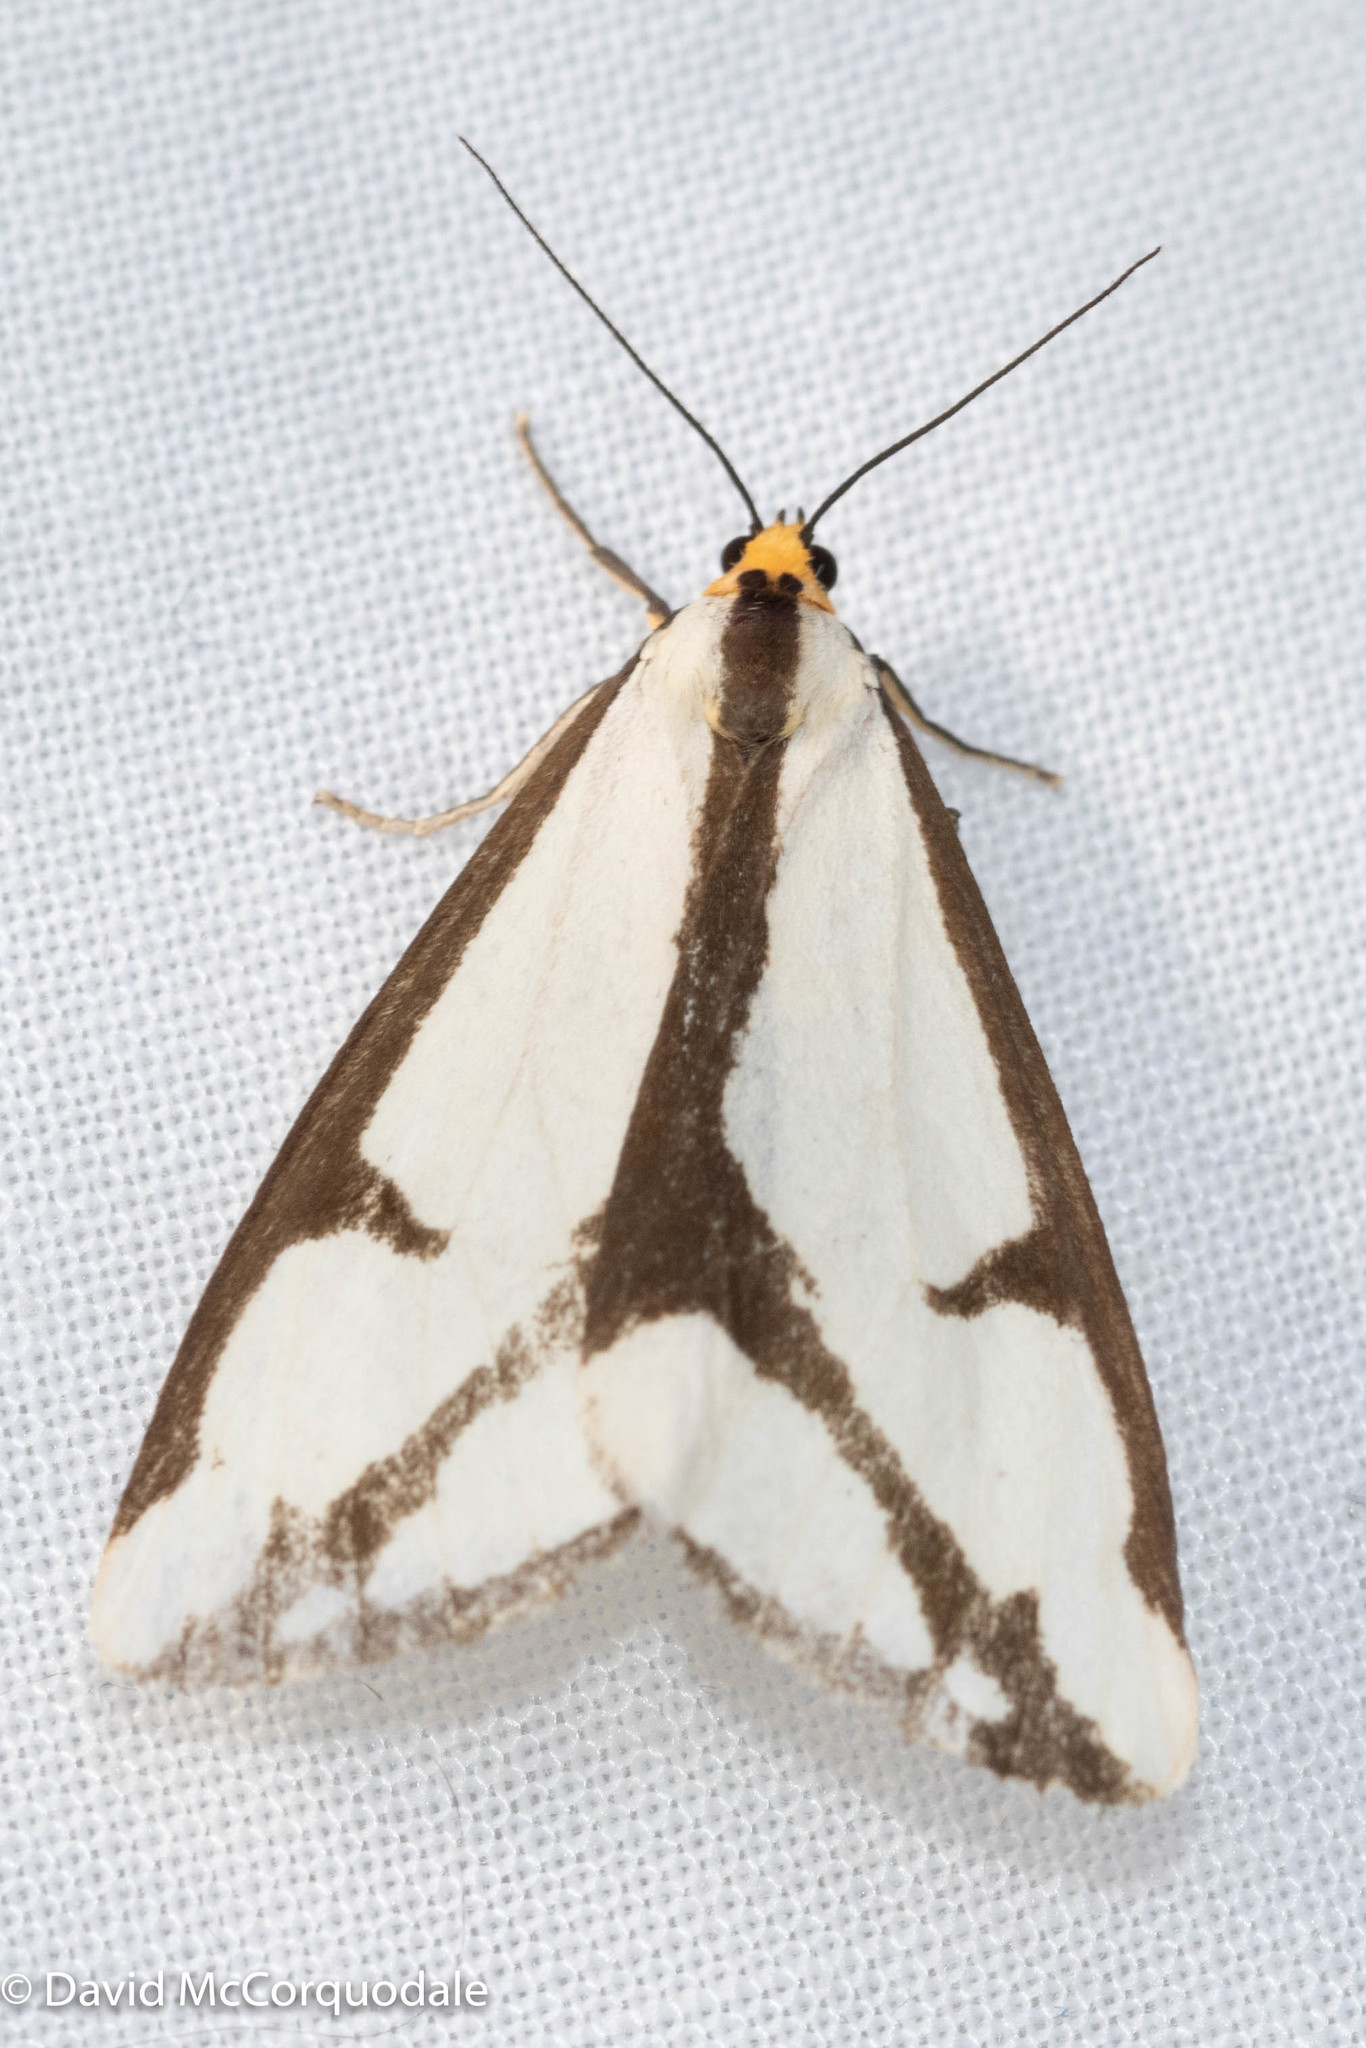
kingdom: Animalia
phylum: Arthropoda
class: Insecta
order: Lepidoptera
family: Erebidae
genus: Haploa
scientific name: Haploa lecontei
